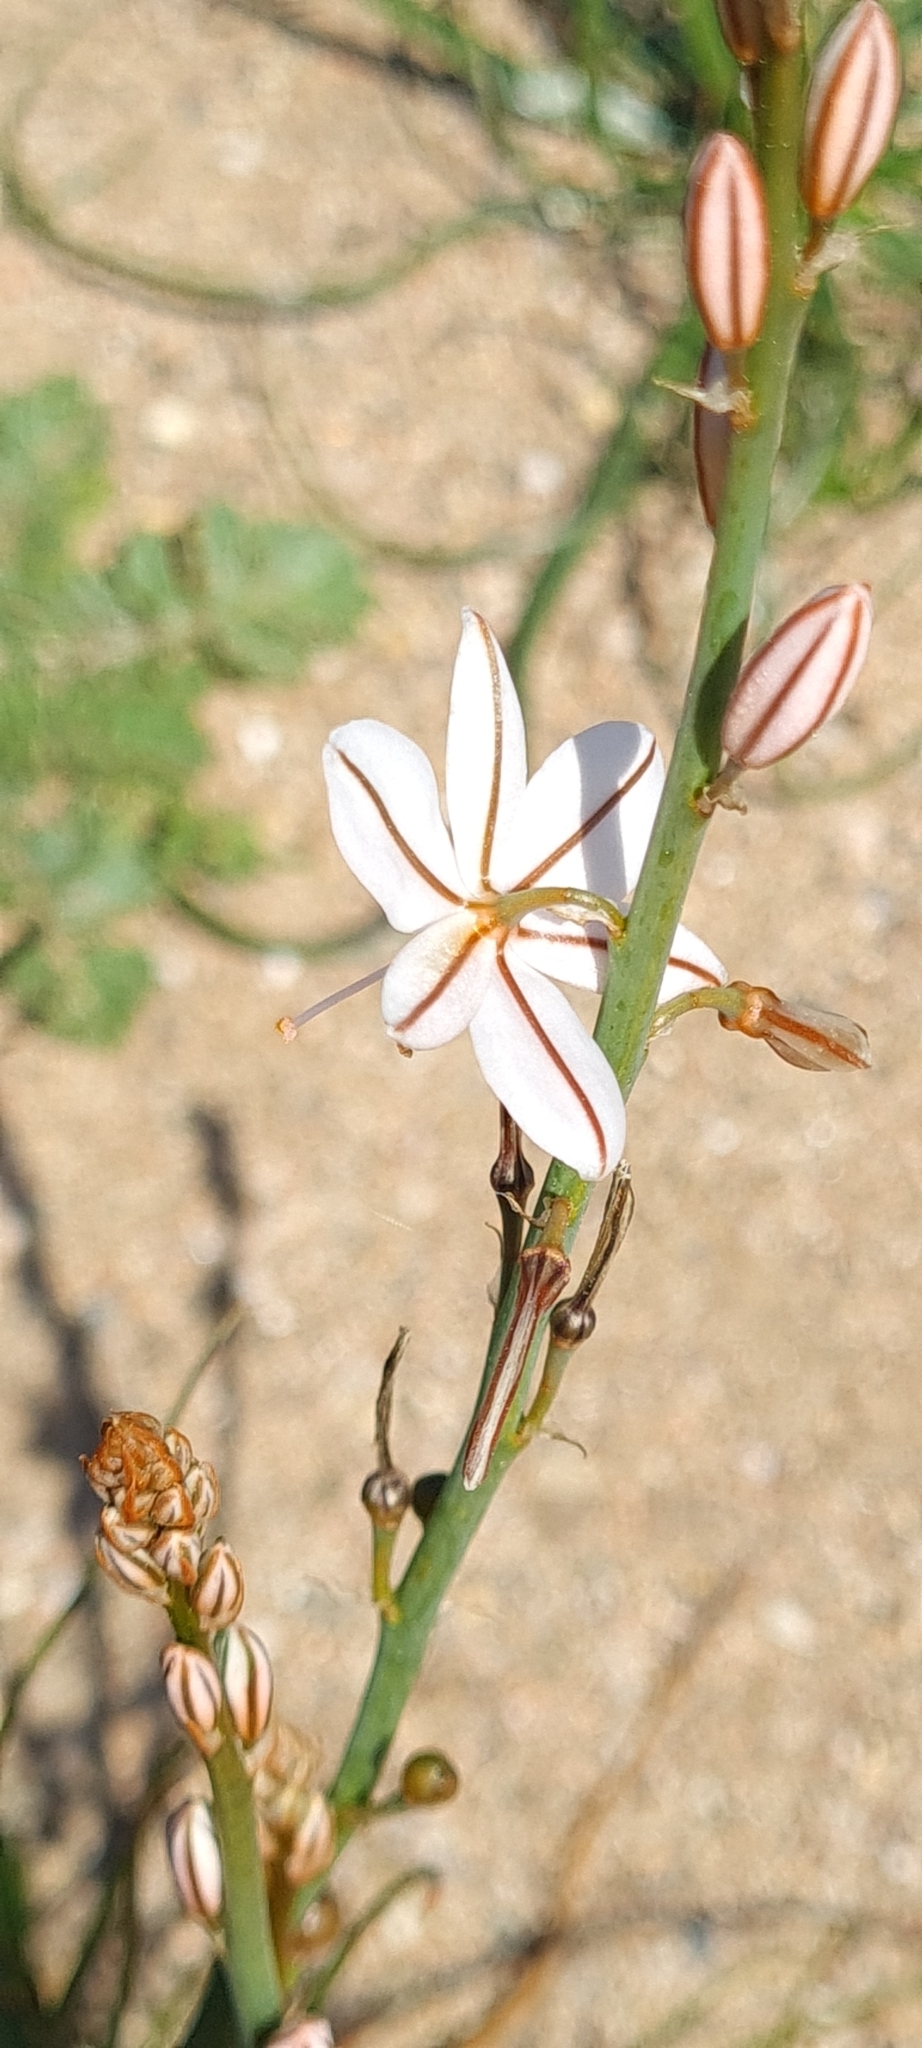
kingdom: Plantae
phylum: Tracheophyta
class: Liliopsida
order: Asparagales
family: Asphodelaceae
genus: Asphodelus
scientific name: Asphodelus fistulosus
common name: Onionweed
